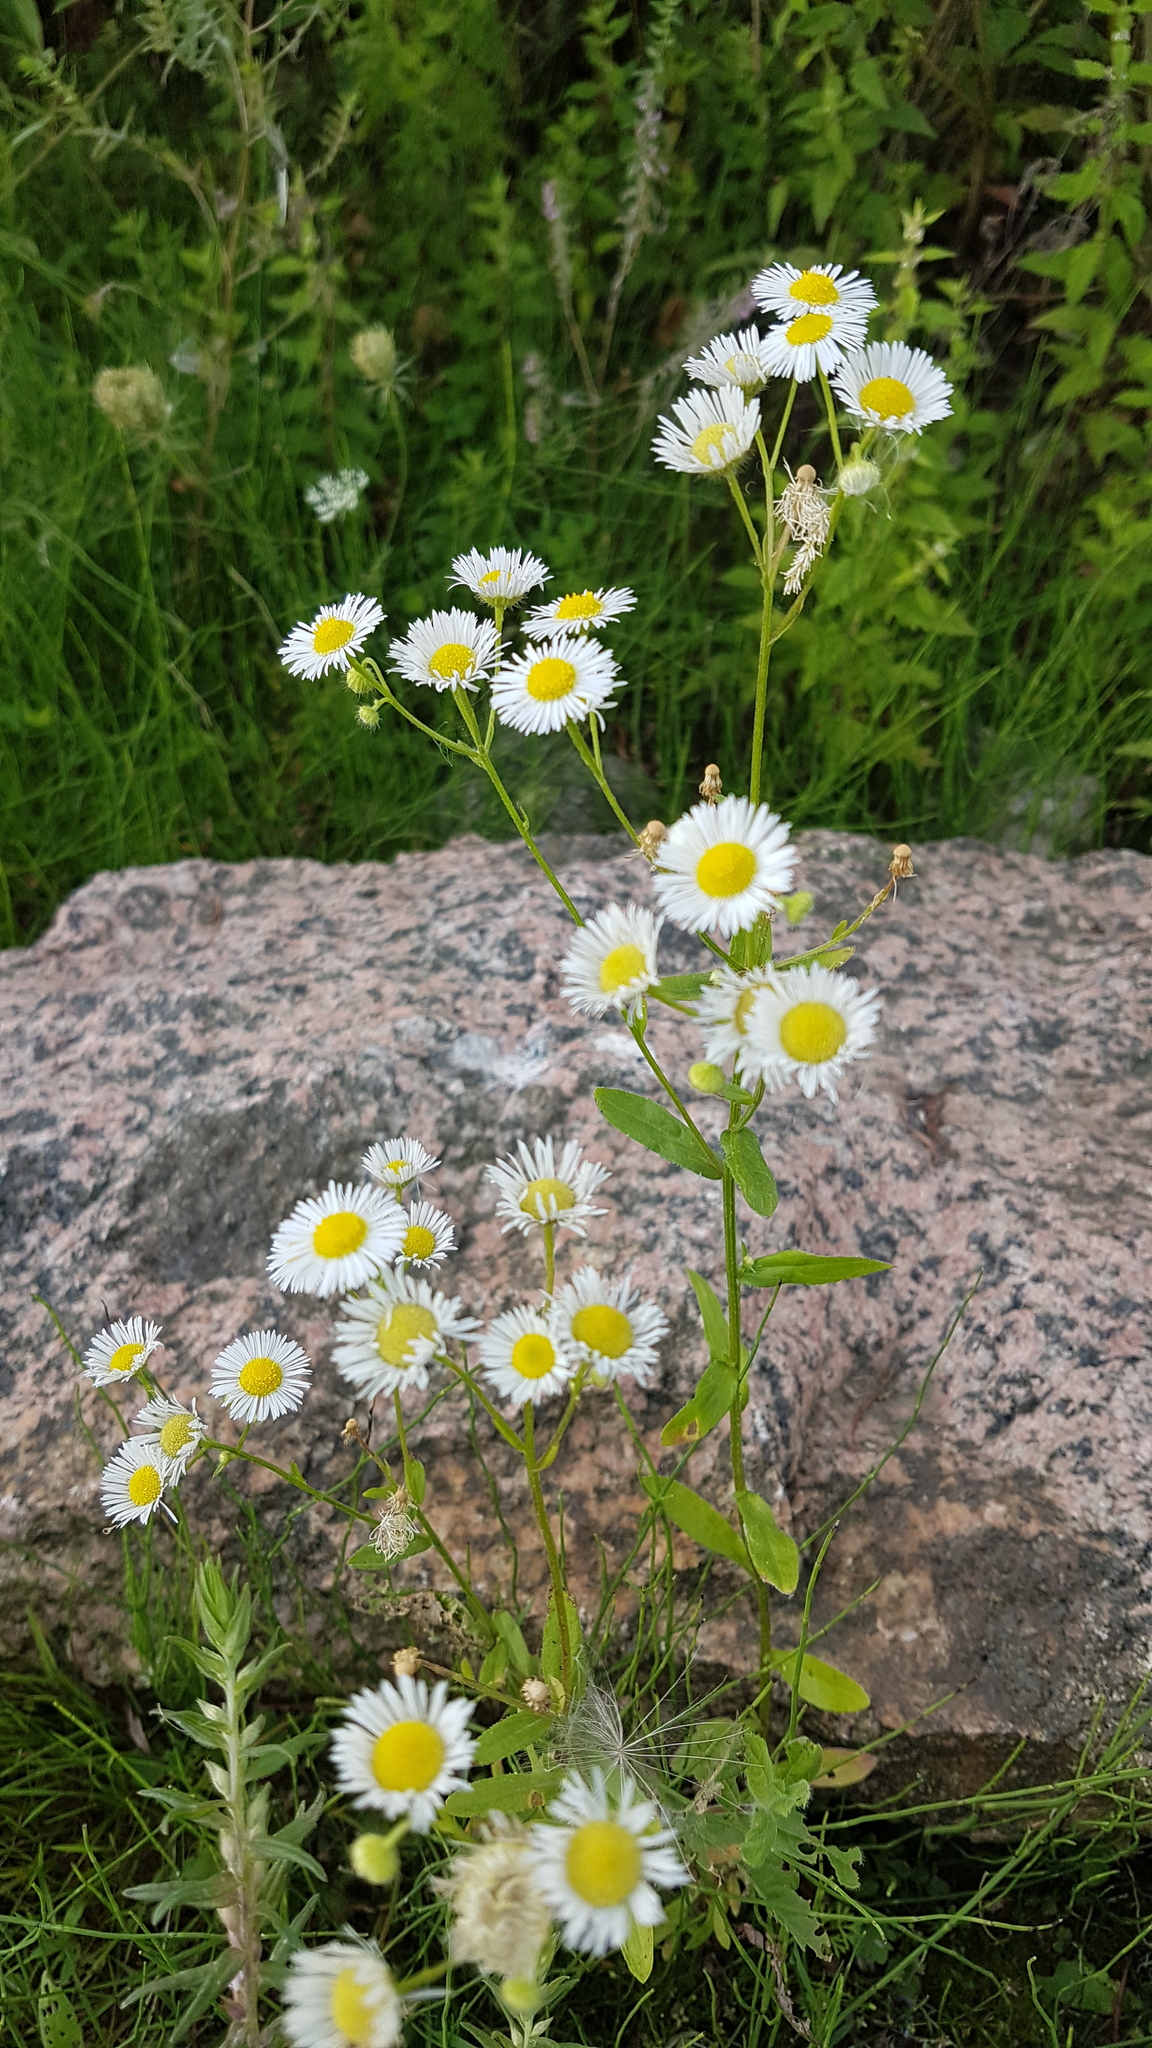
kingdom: Plantae
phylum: Tracheophyta
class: Magnoliopsida
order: Asterales
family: Asteraceae
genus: Erigeron
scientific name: Erigeron annuus
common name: Tall fleabane
